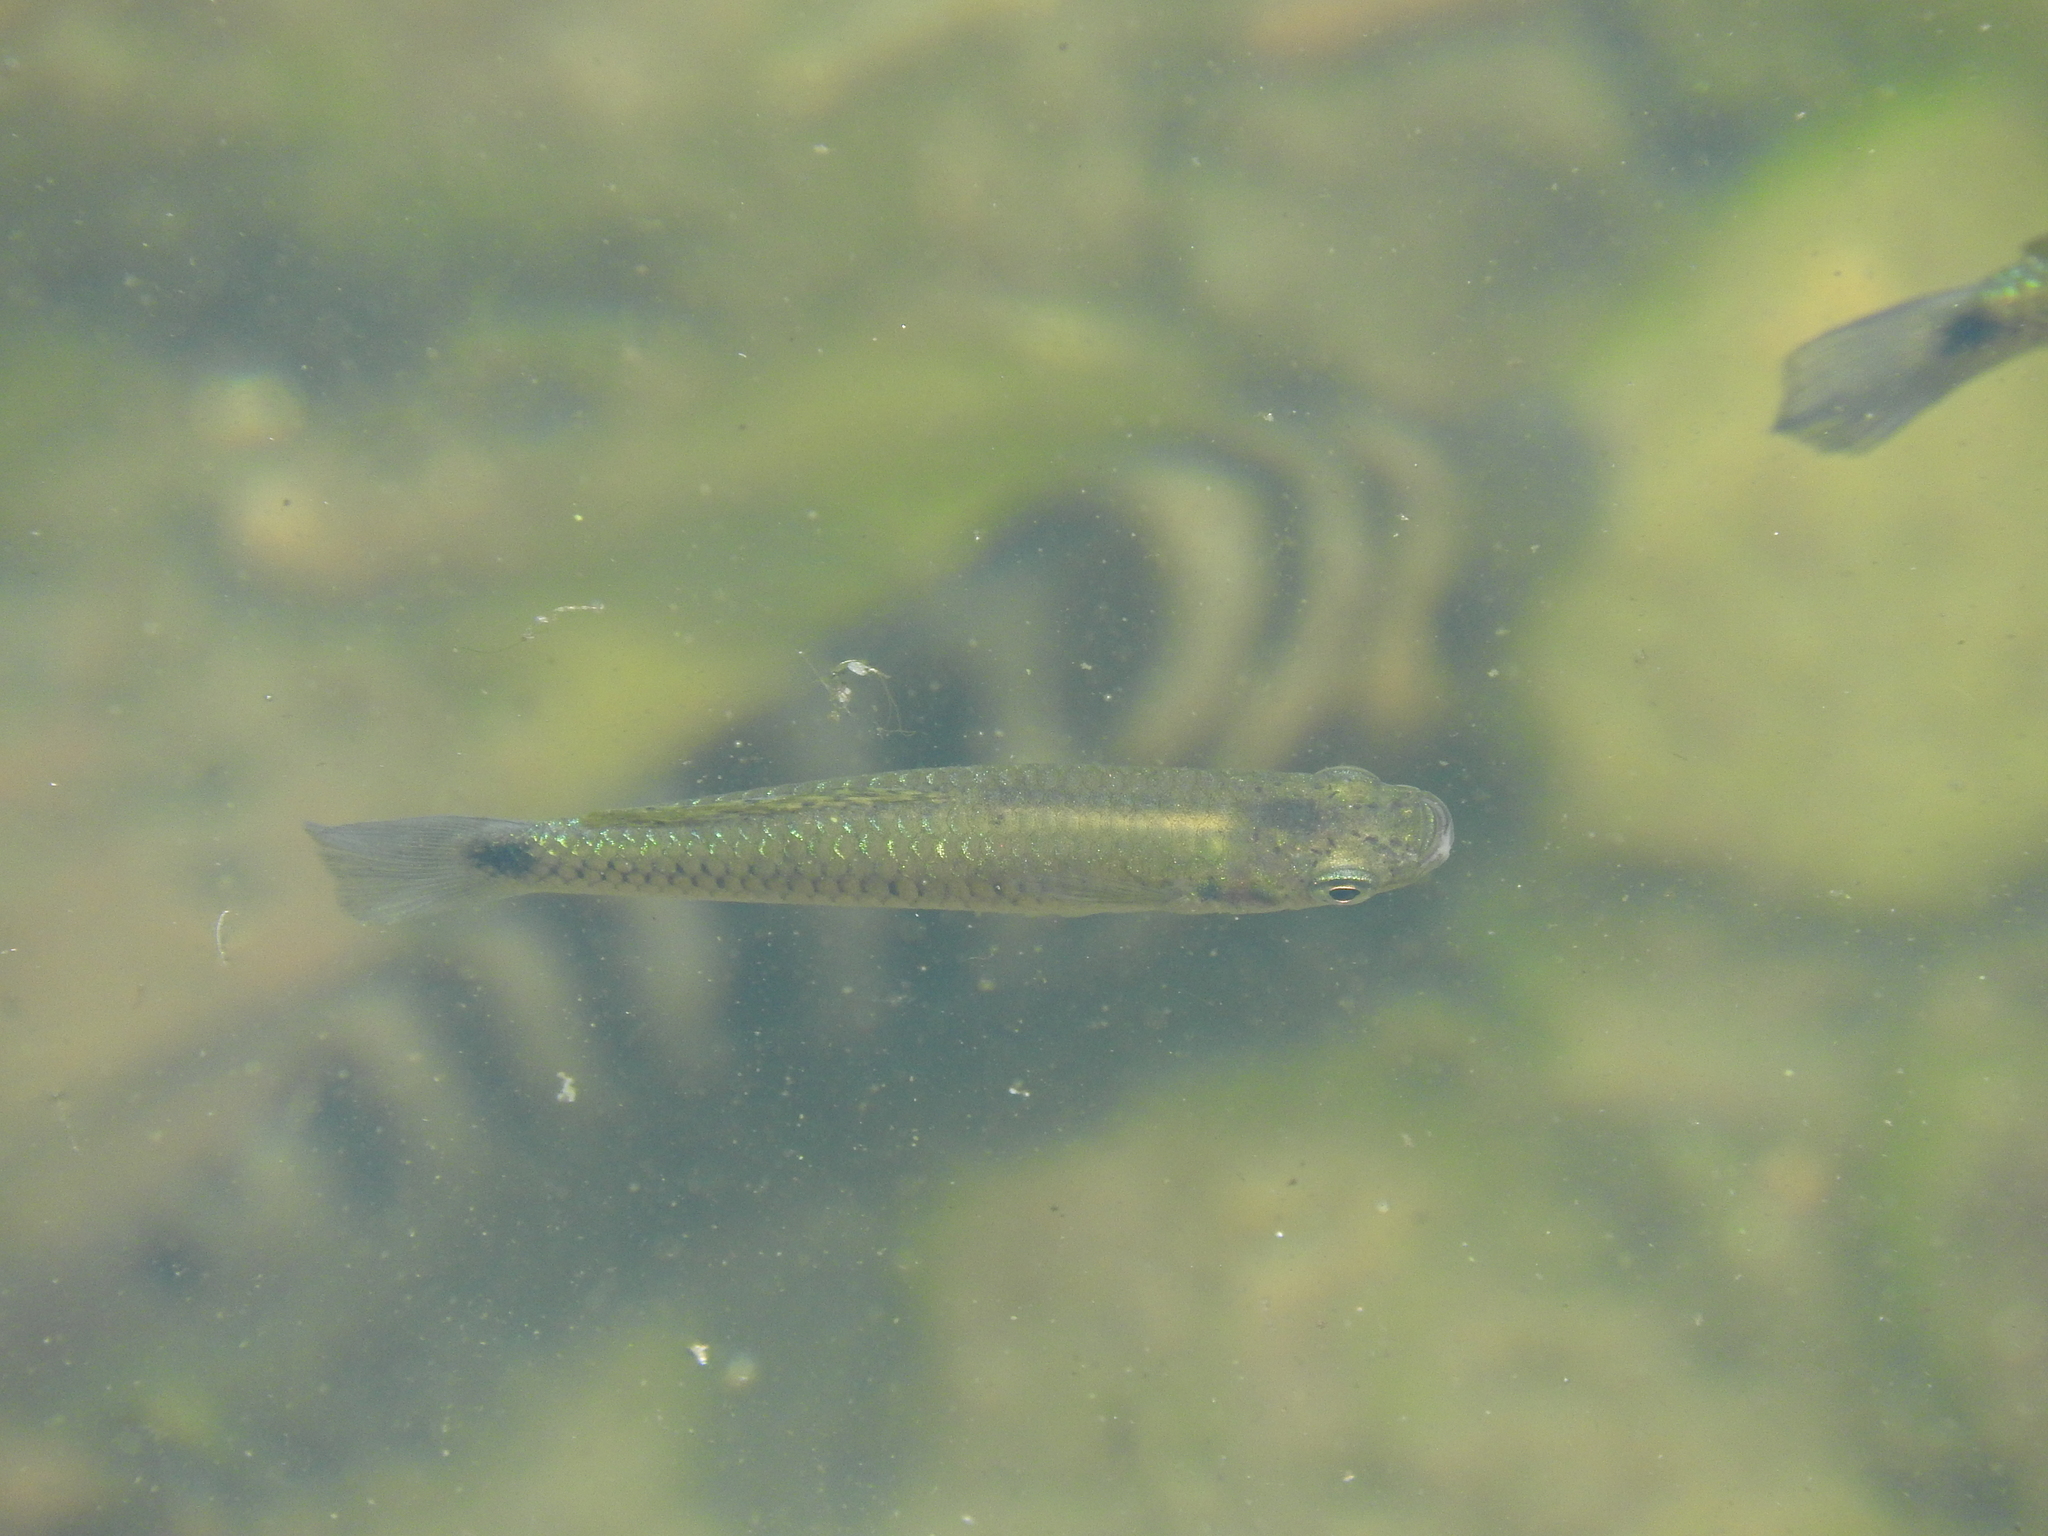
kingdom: Animalia
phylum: Chordata
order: Cyprinodontiformes
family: Poeciliidae
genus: Pseudoxiphophorus
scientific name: Pseudoxiphophorus bimaculatus
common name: Twospot livebearer
